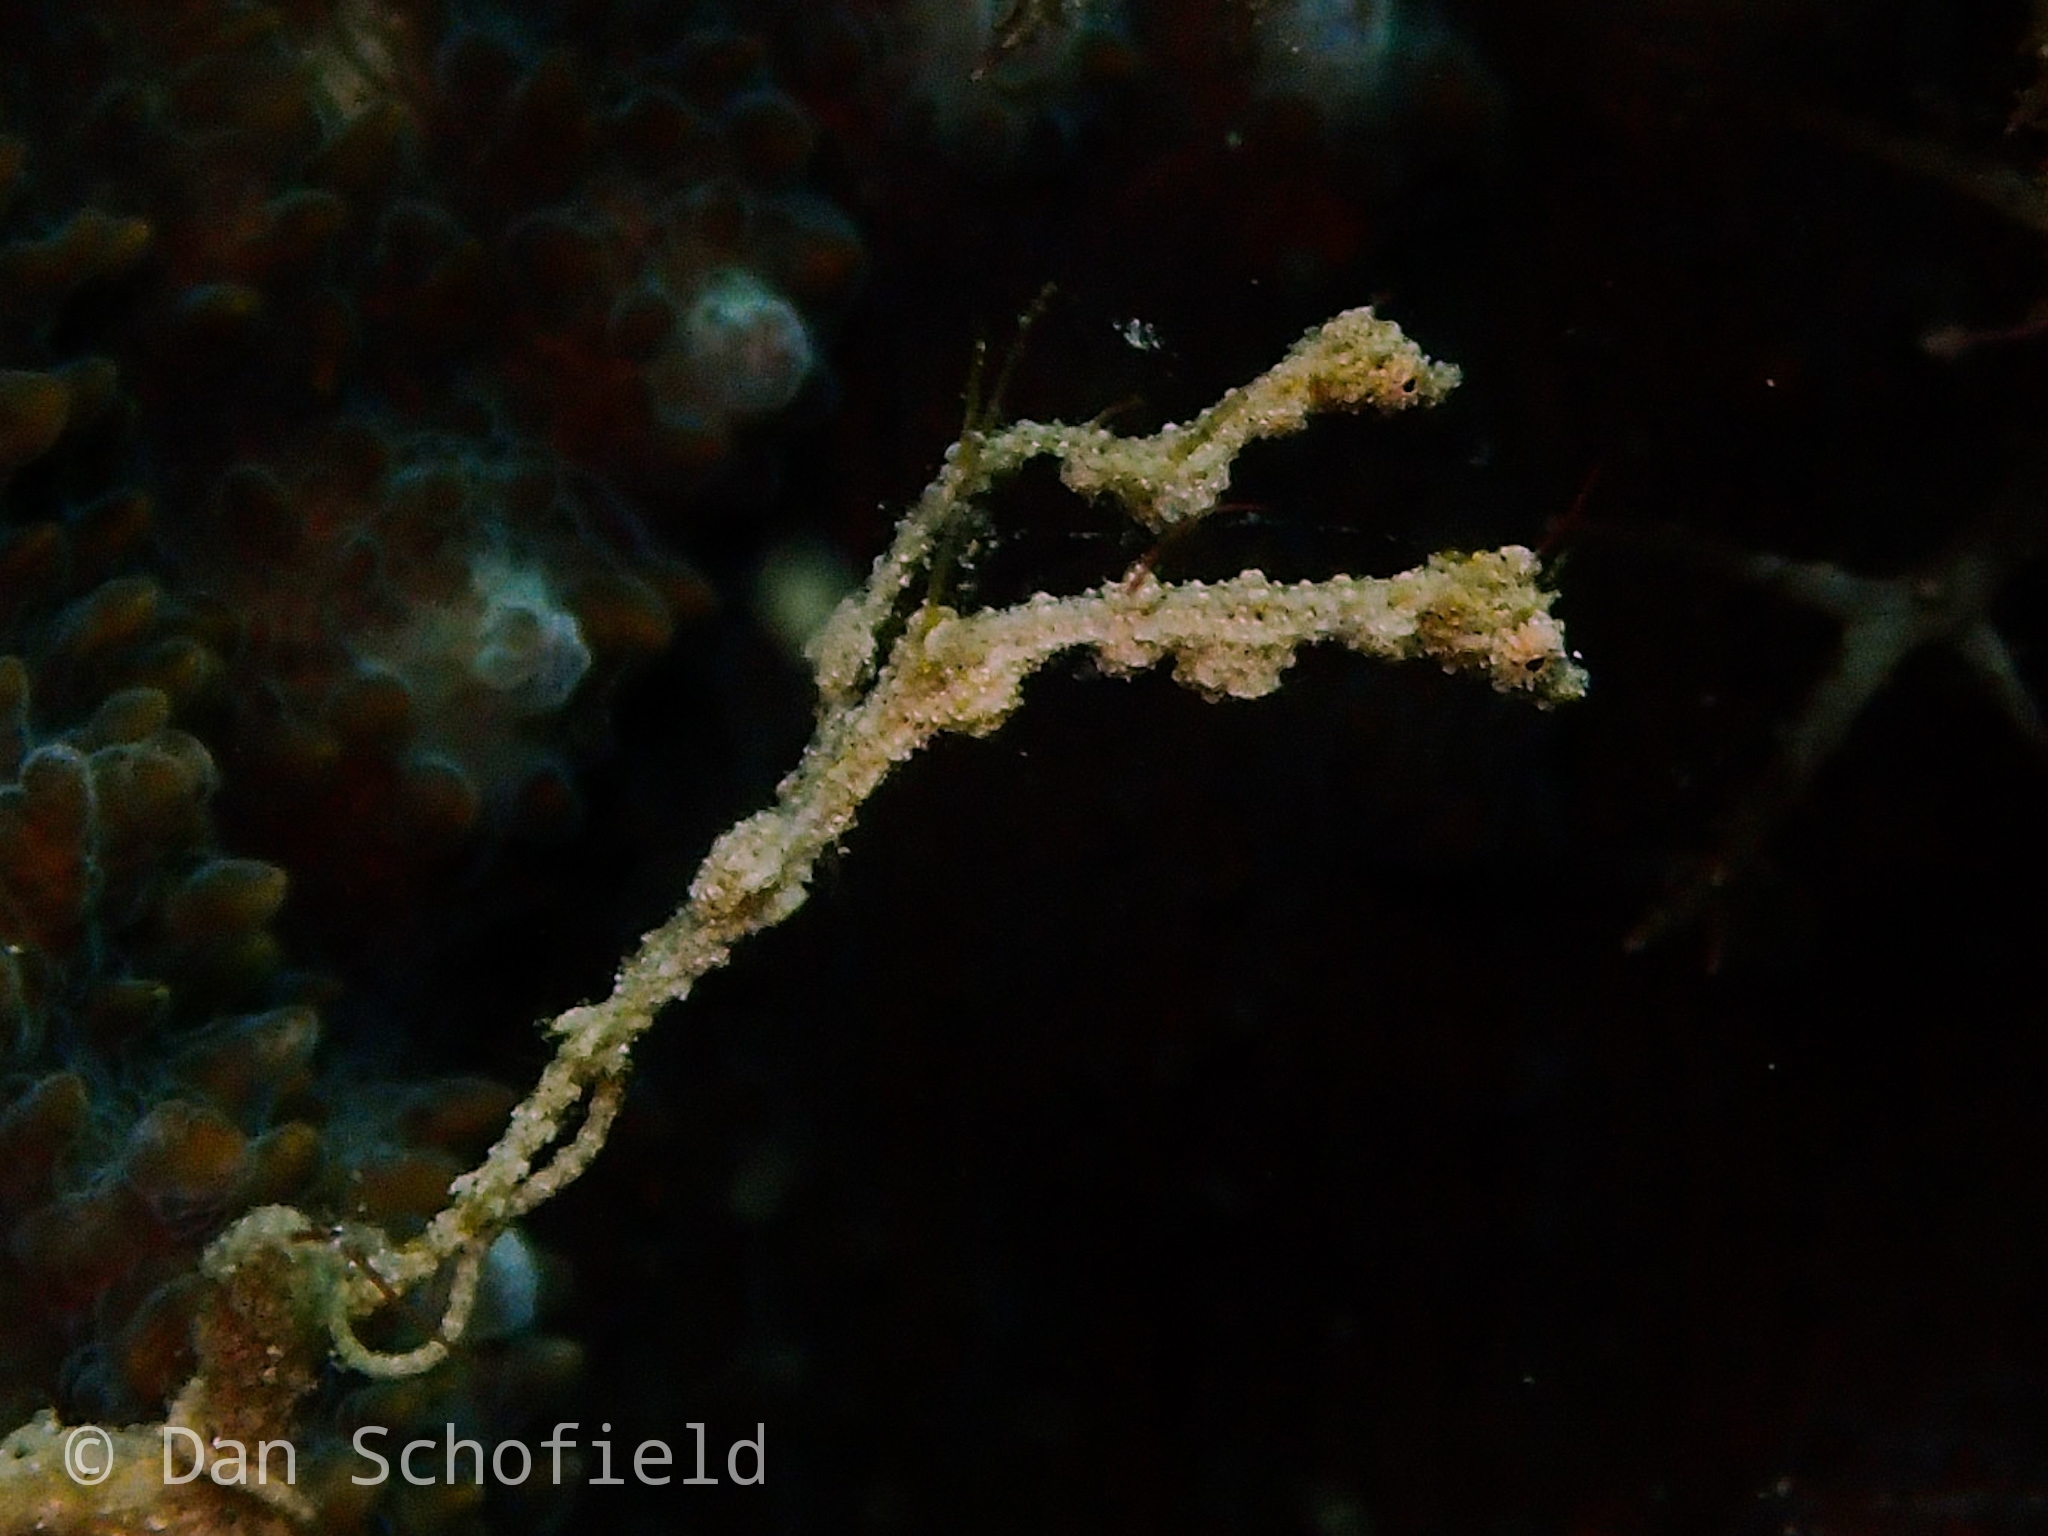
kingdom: Animalia
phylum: Chordata
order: Syngnathiformes
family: Syngnathidae
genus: Kyonemichthys
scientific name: Kyonemichthys rumengani
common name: Thread pipefish
